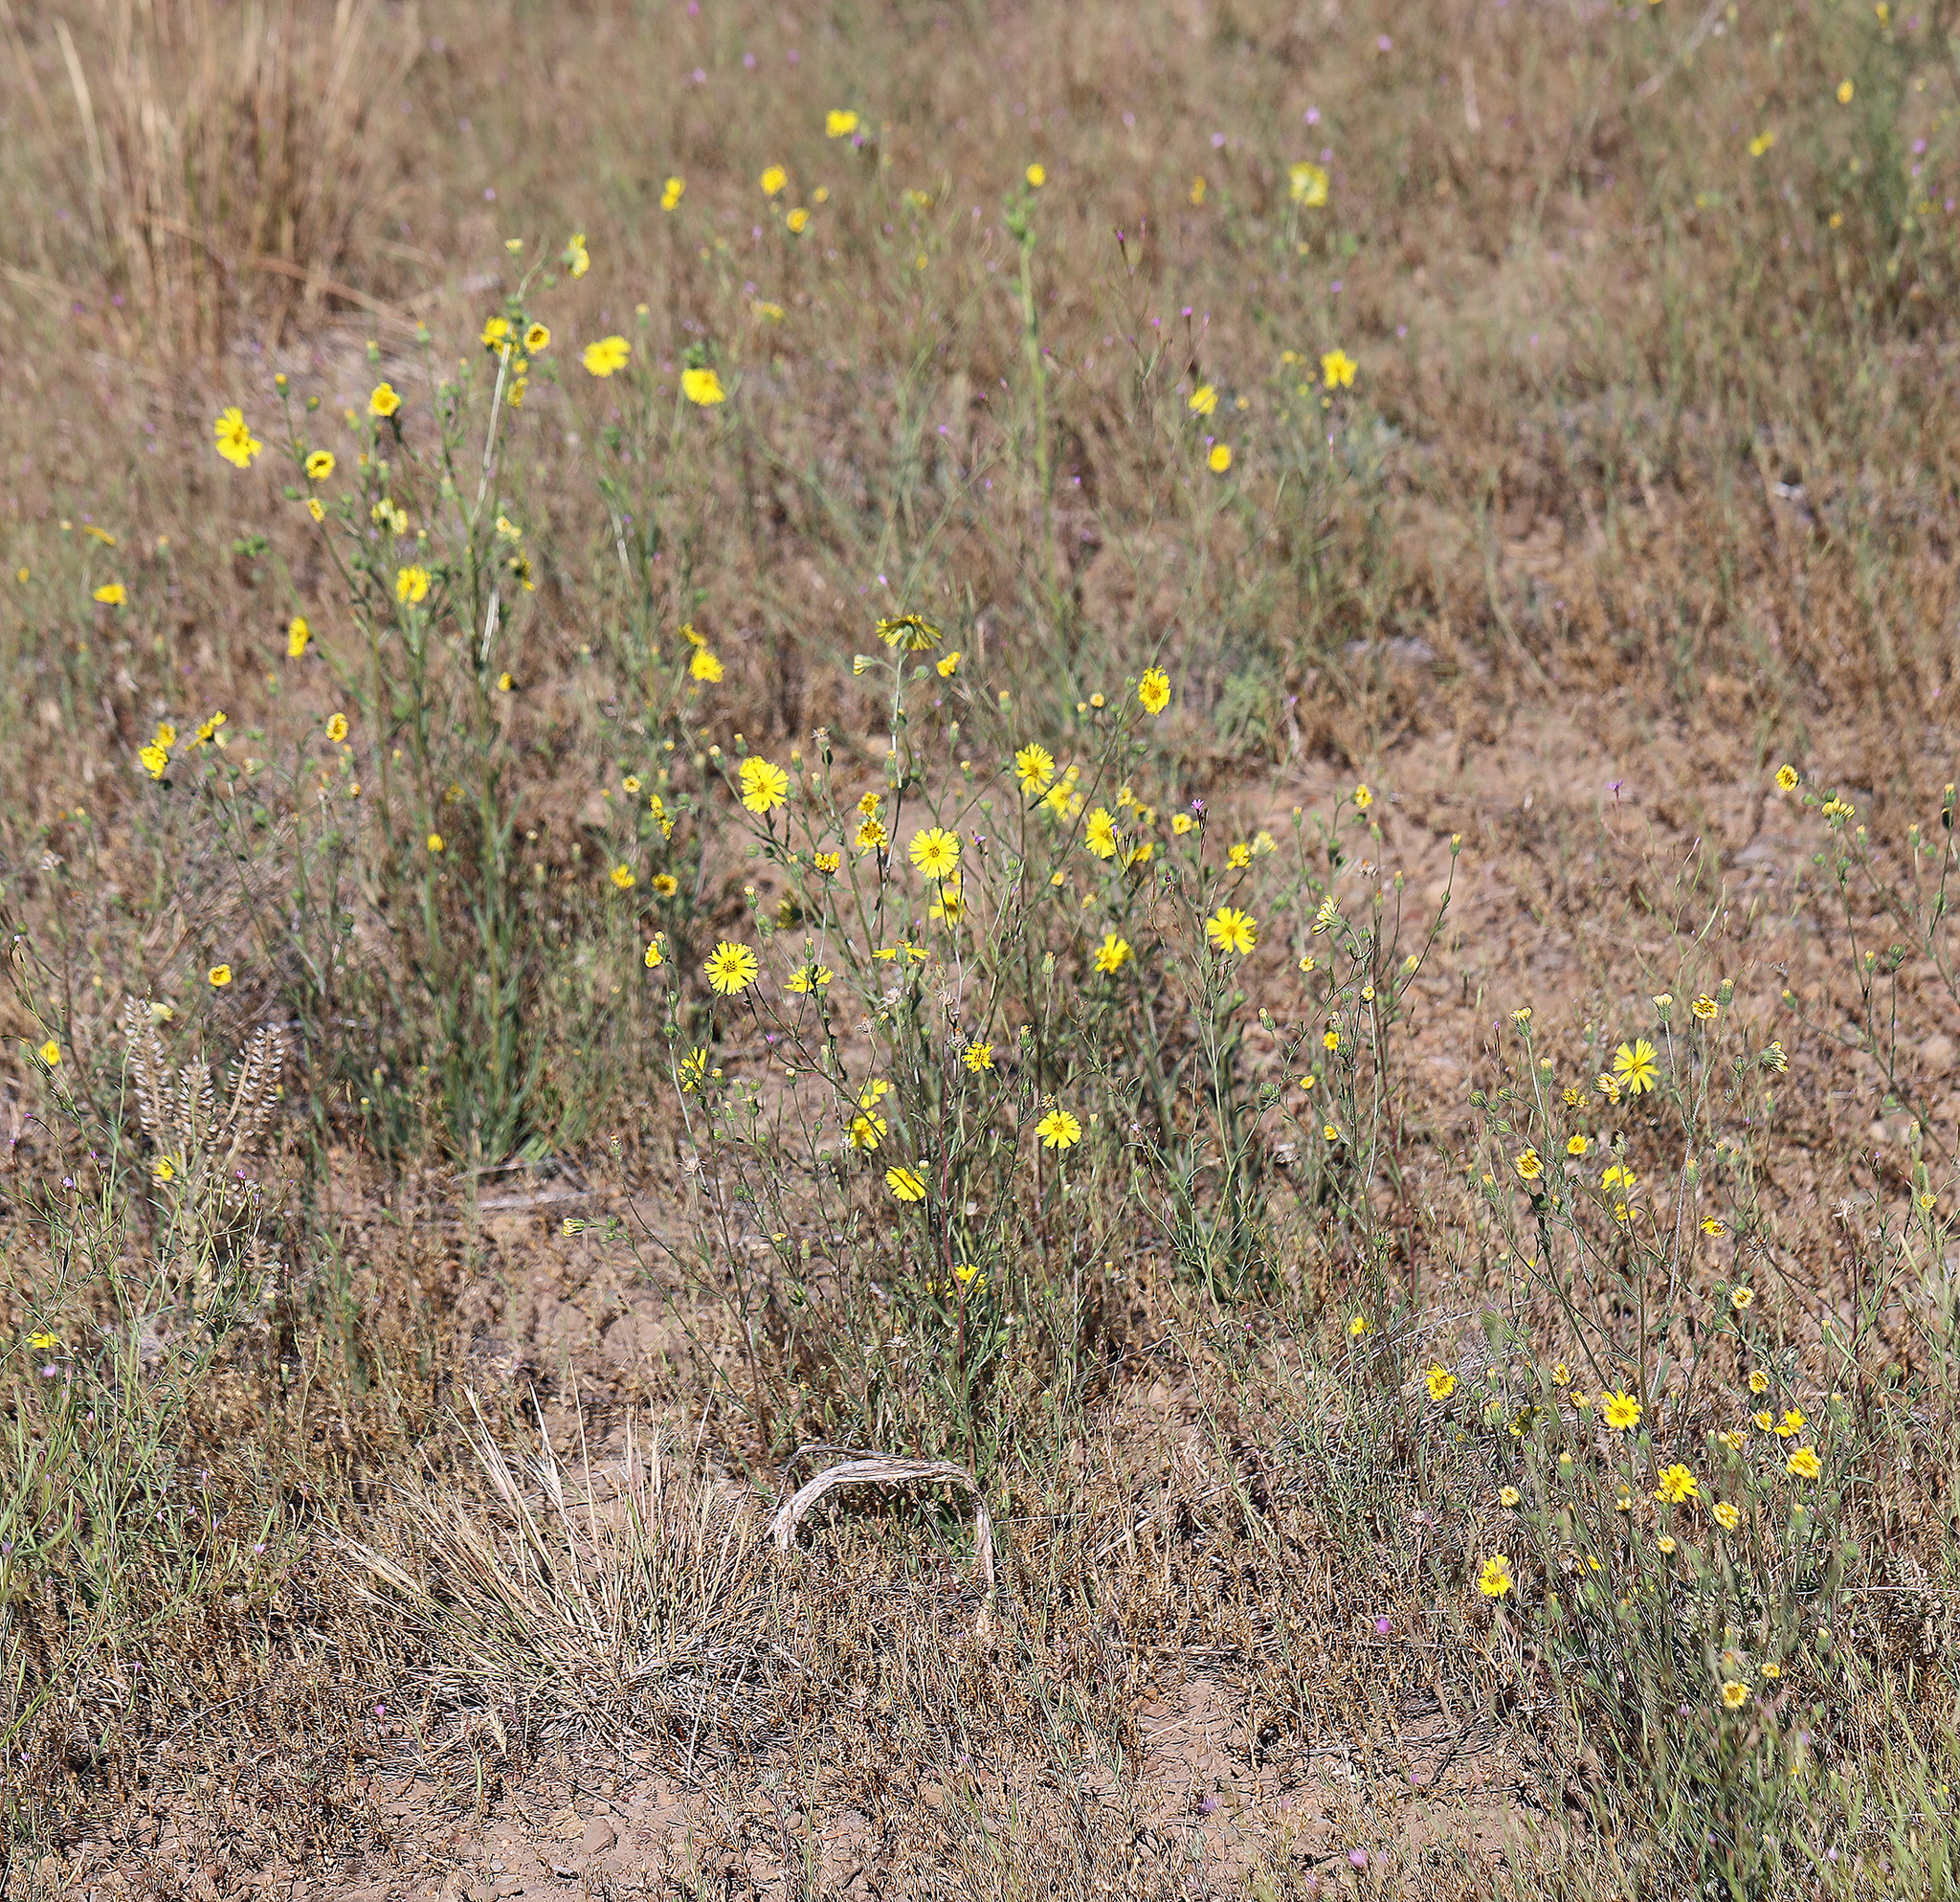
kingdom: Plantae
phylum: Tracheophyta
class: Magnoliopsida
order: Asterales
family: Asteraceae
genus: Madia
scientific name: Madia elegans
